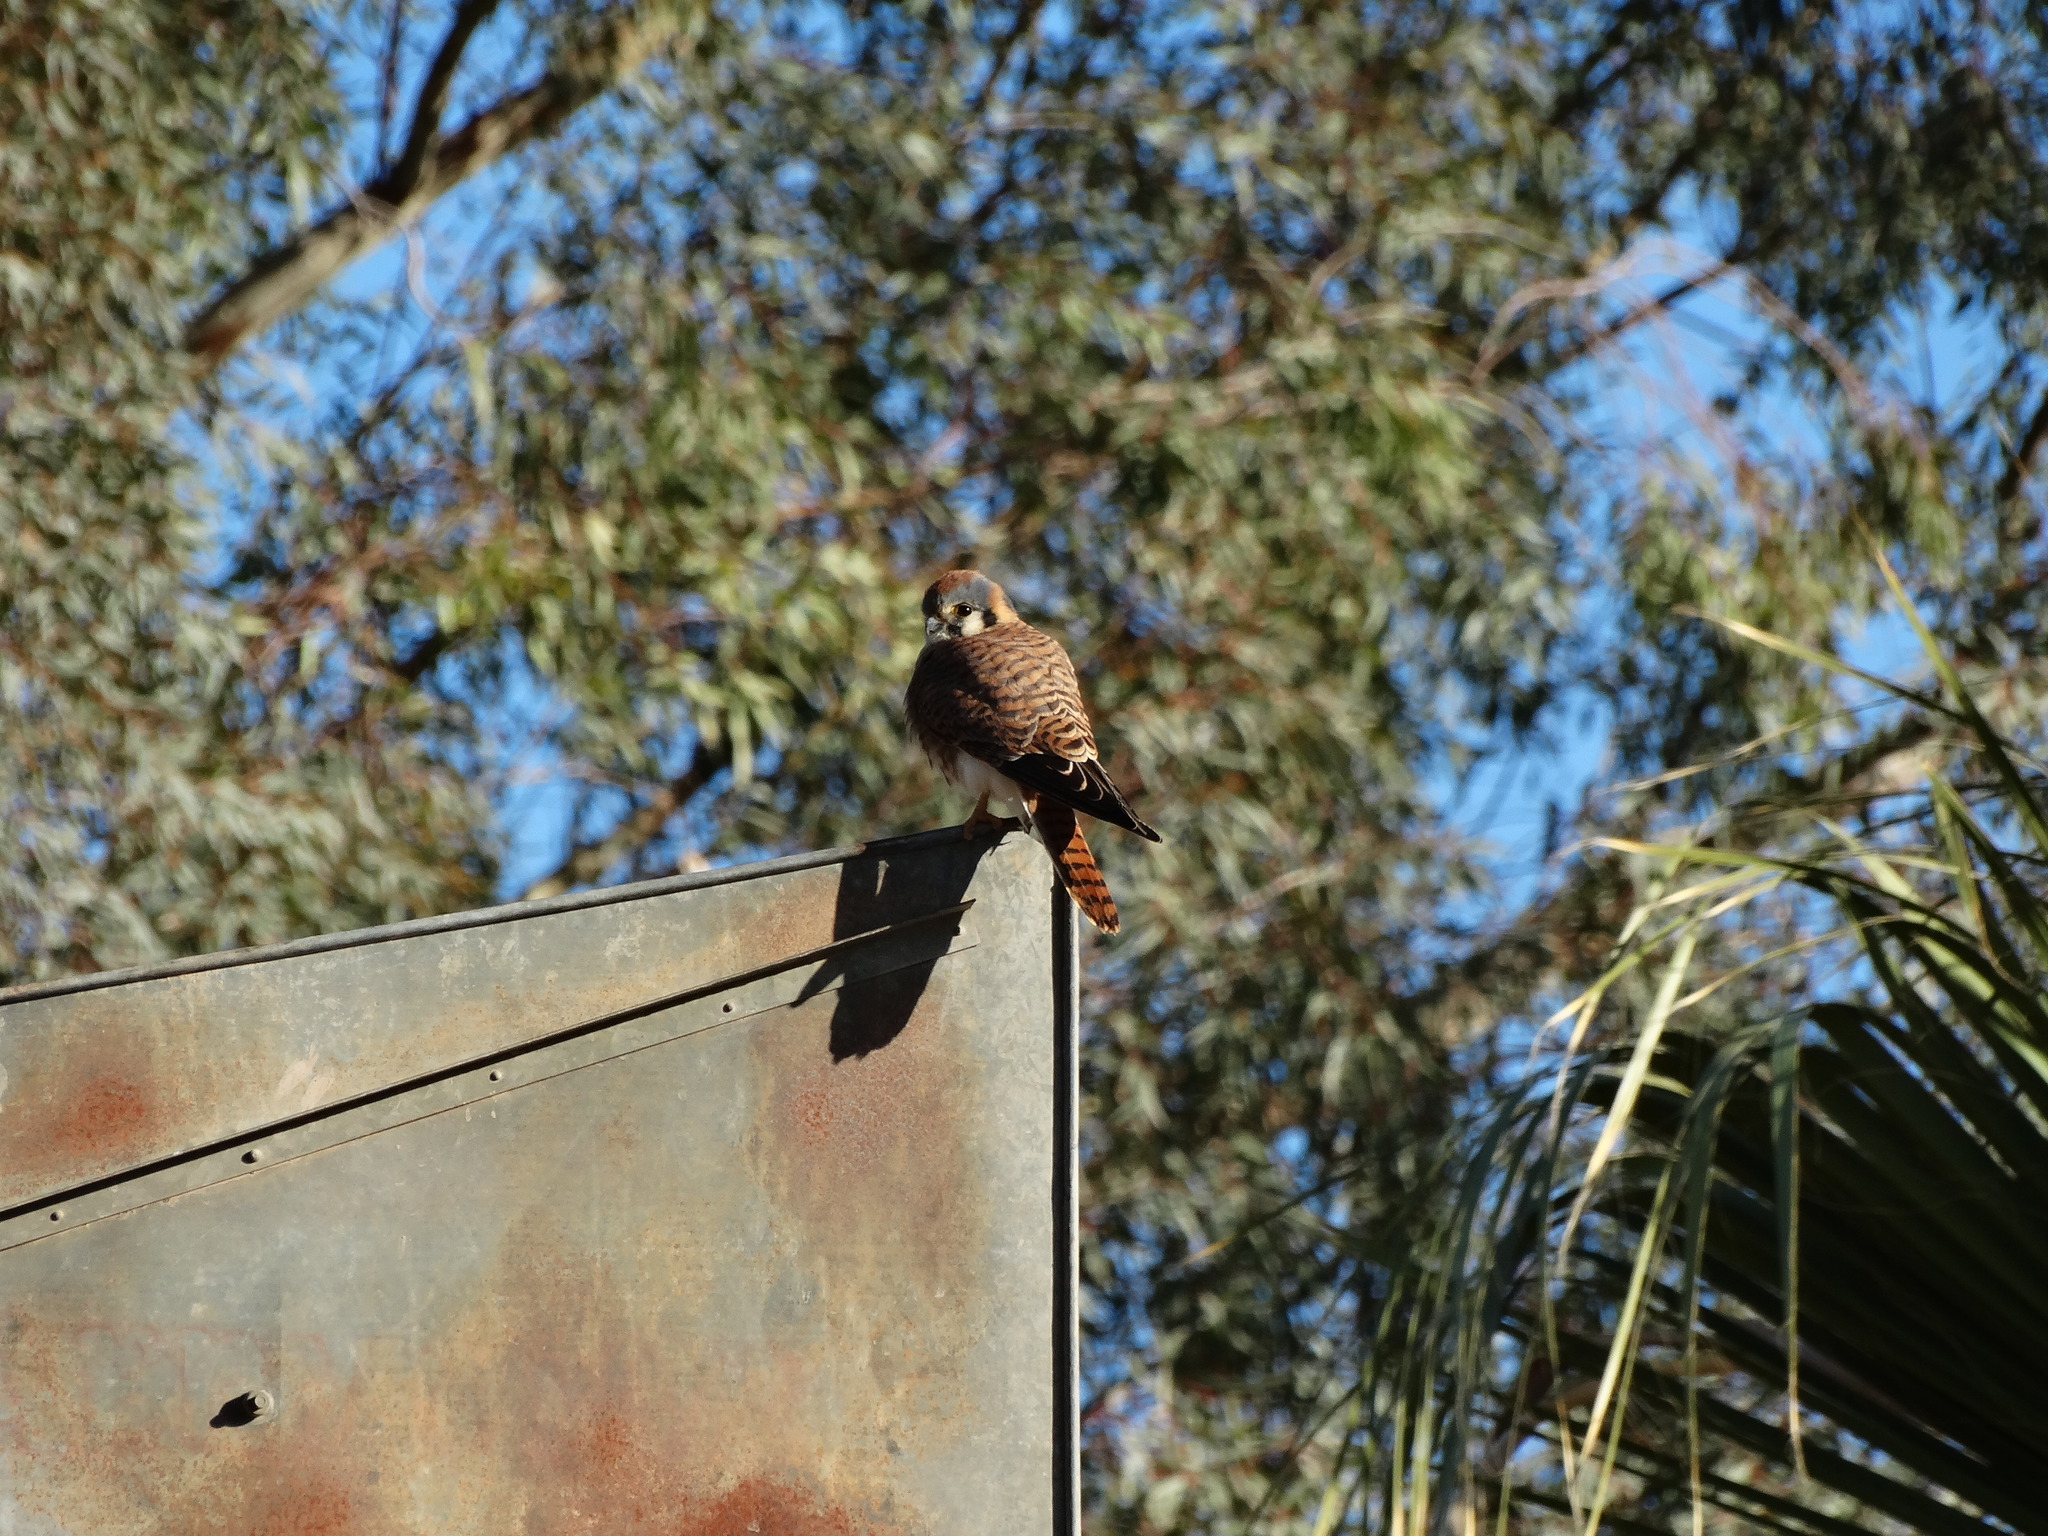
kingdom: Animalia
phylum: Chordata
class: Aves
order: Falconiformes
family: Falconidae
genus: Falco
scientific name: Falco sparverius
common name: American kestrel
